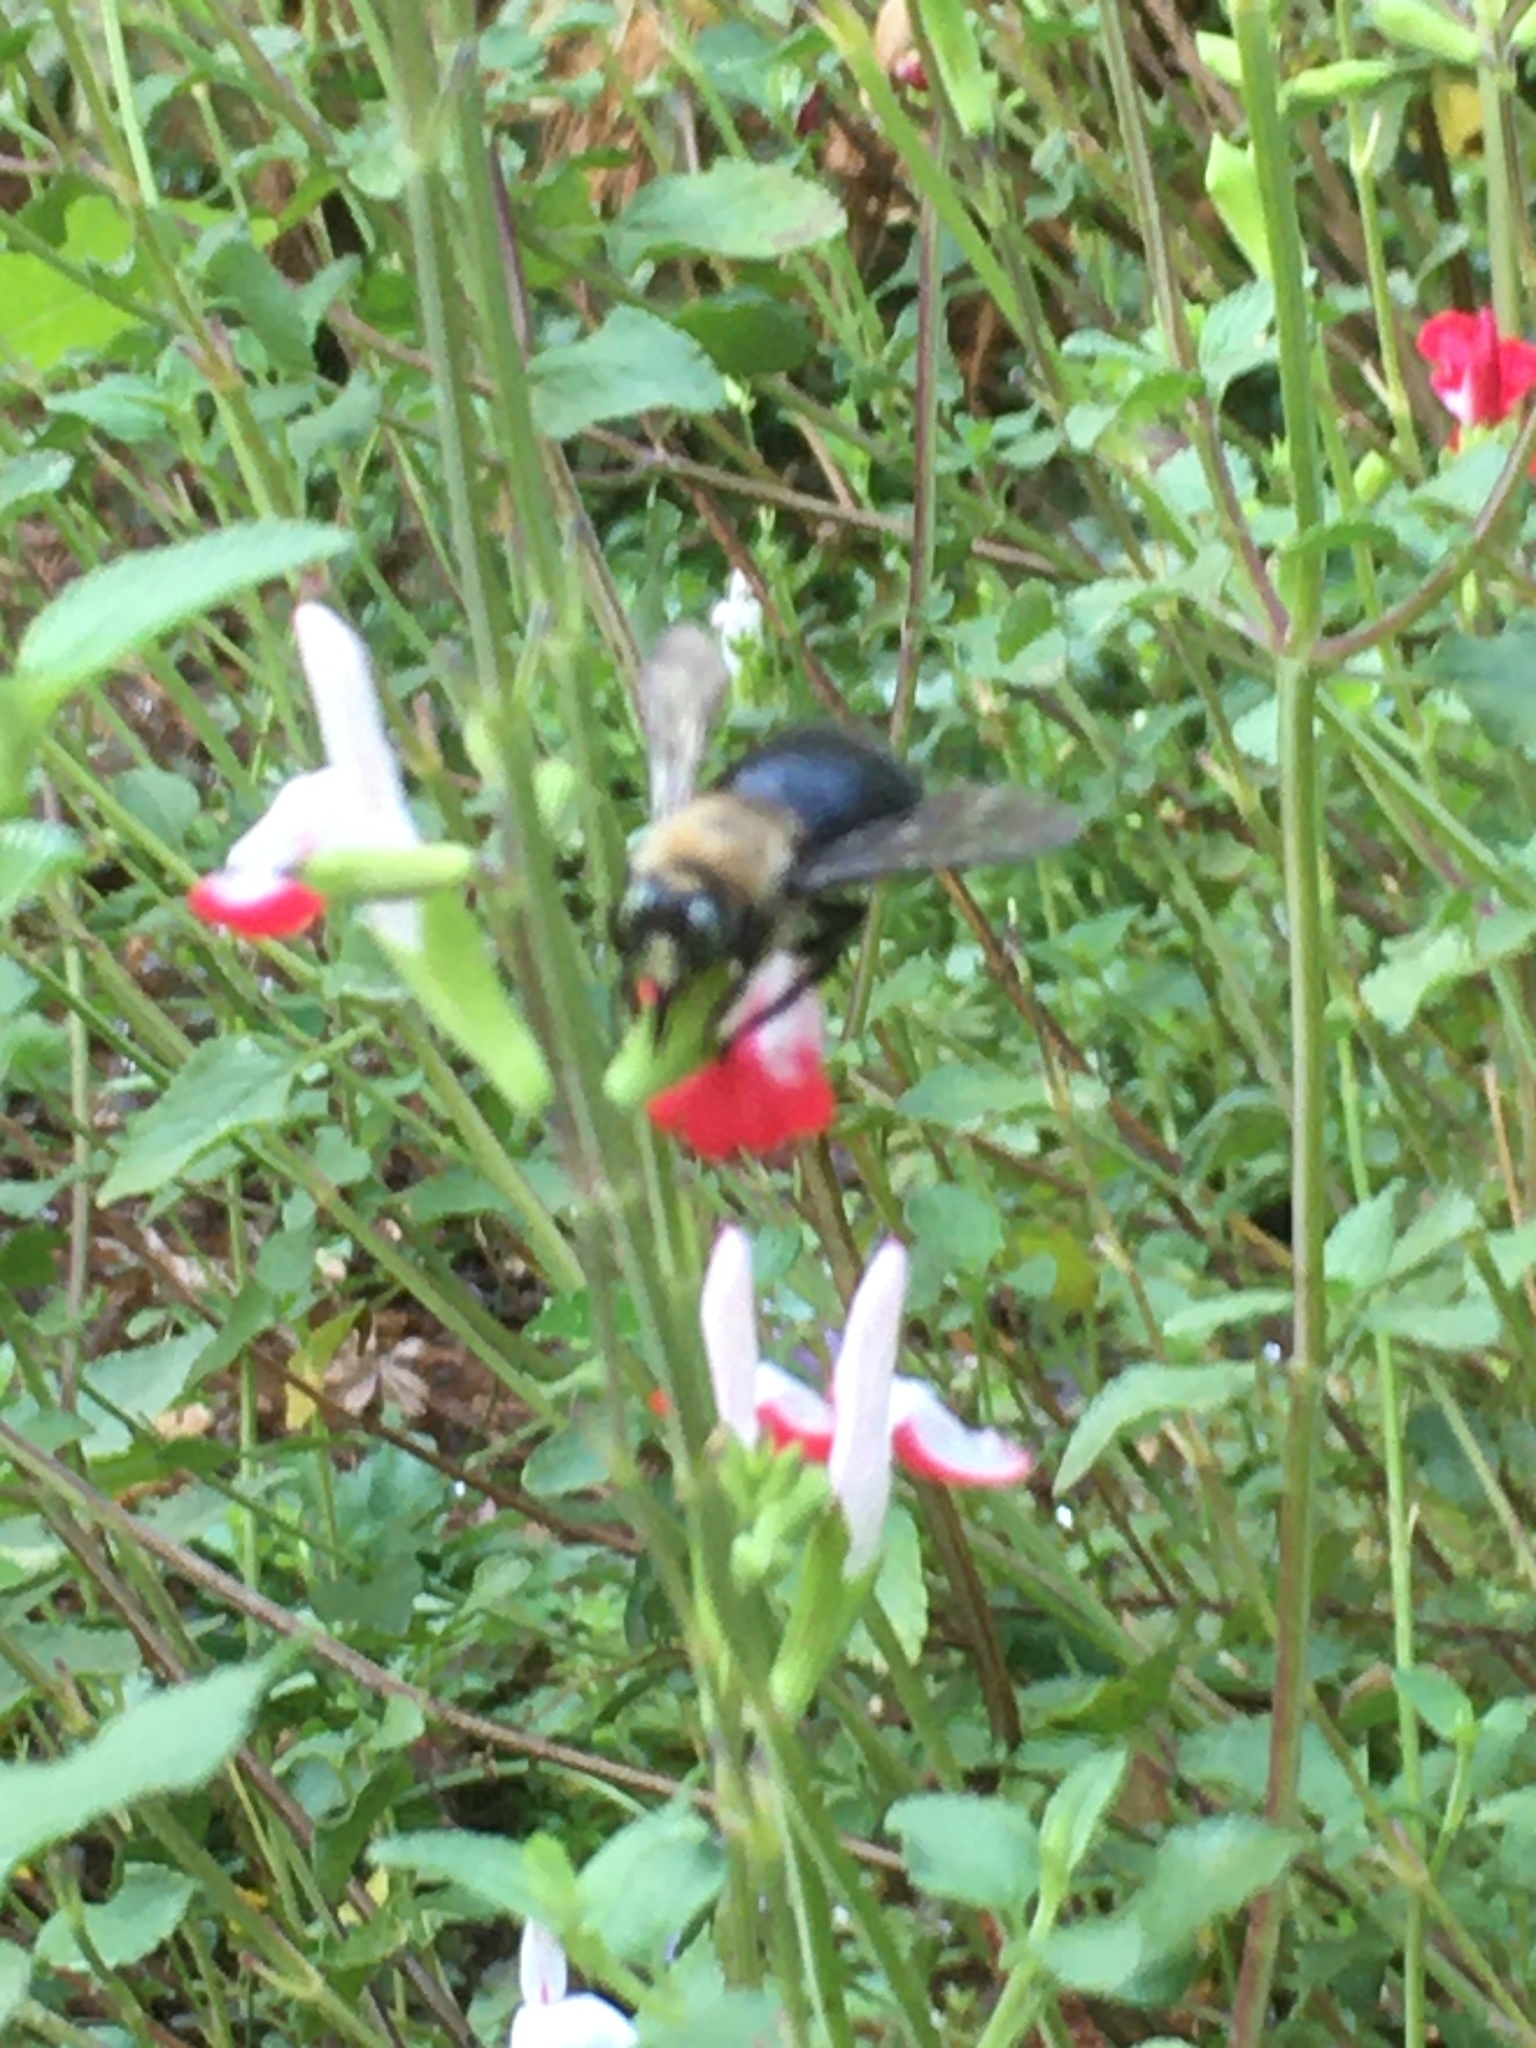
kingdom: Animalia
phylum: Arthropoda
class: Insecta
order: Hymenoptera
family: Apidae
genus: Xylocopa
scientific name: Xylocopa tabaniformis
